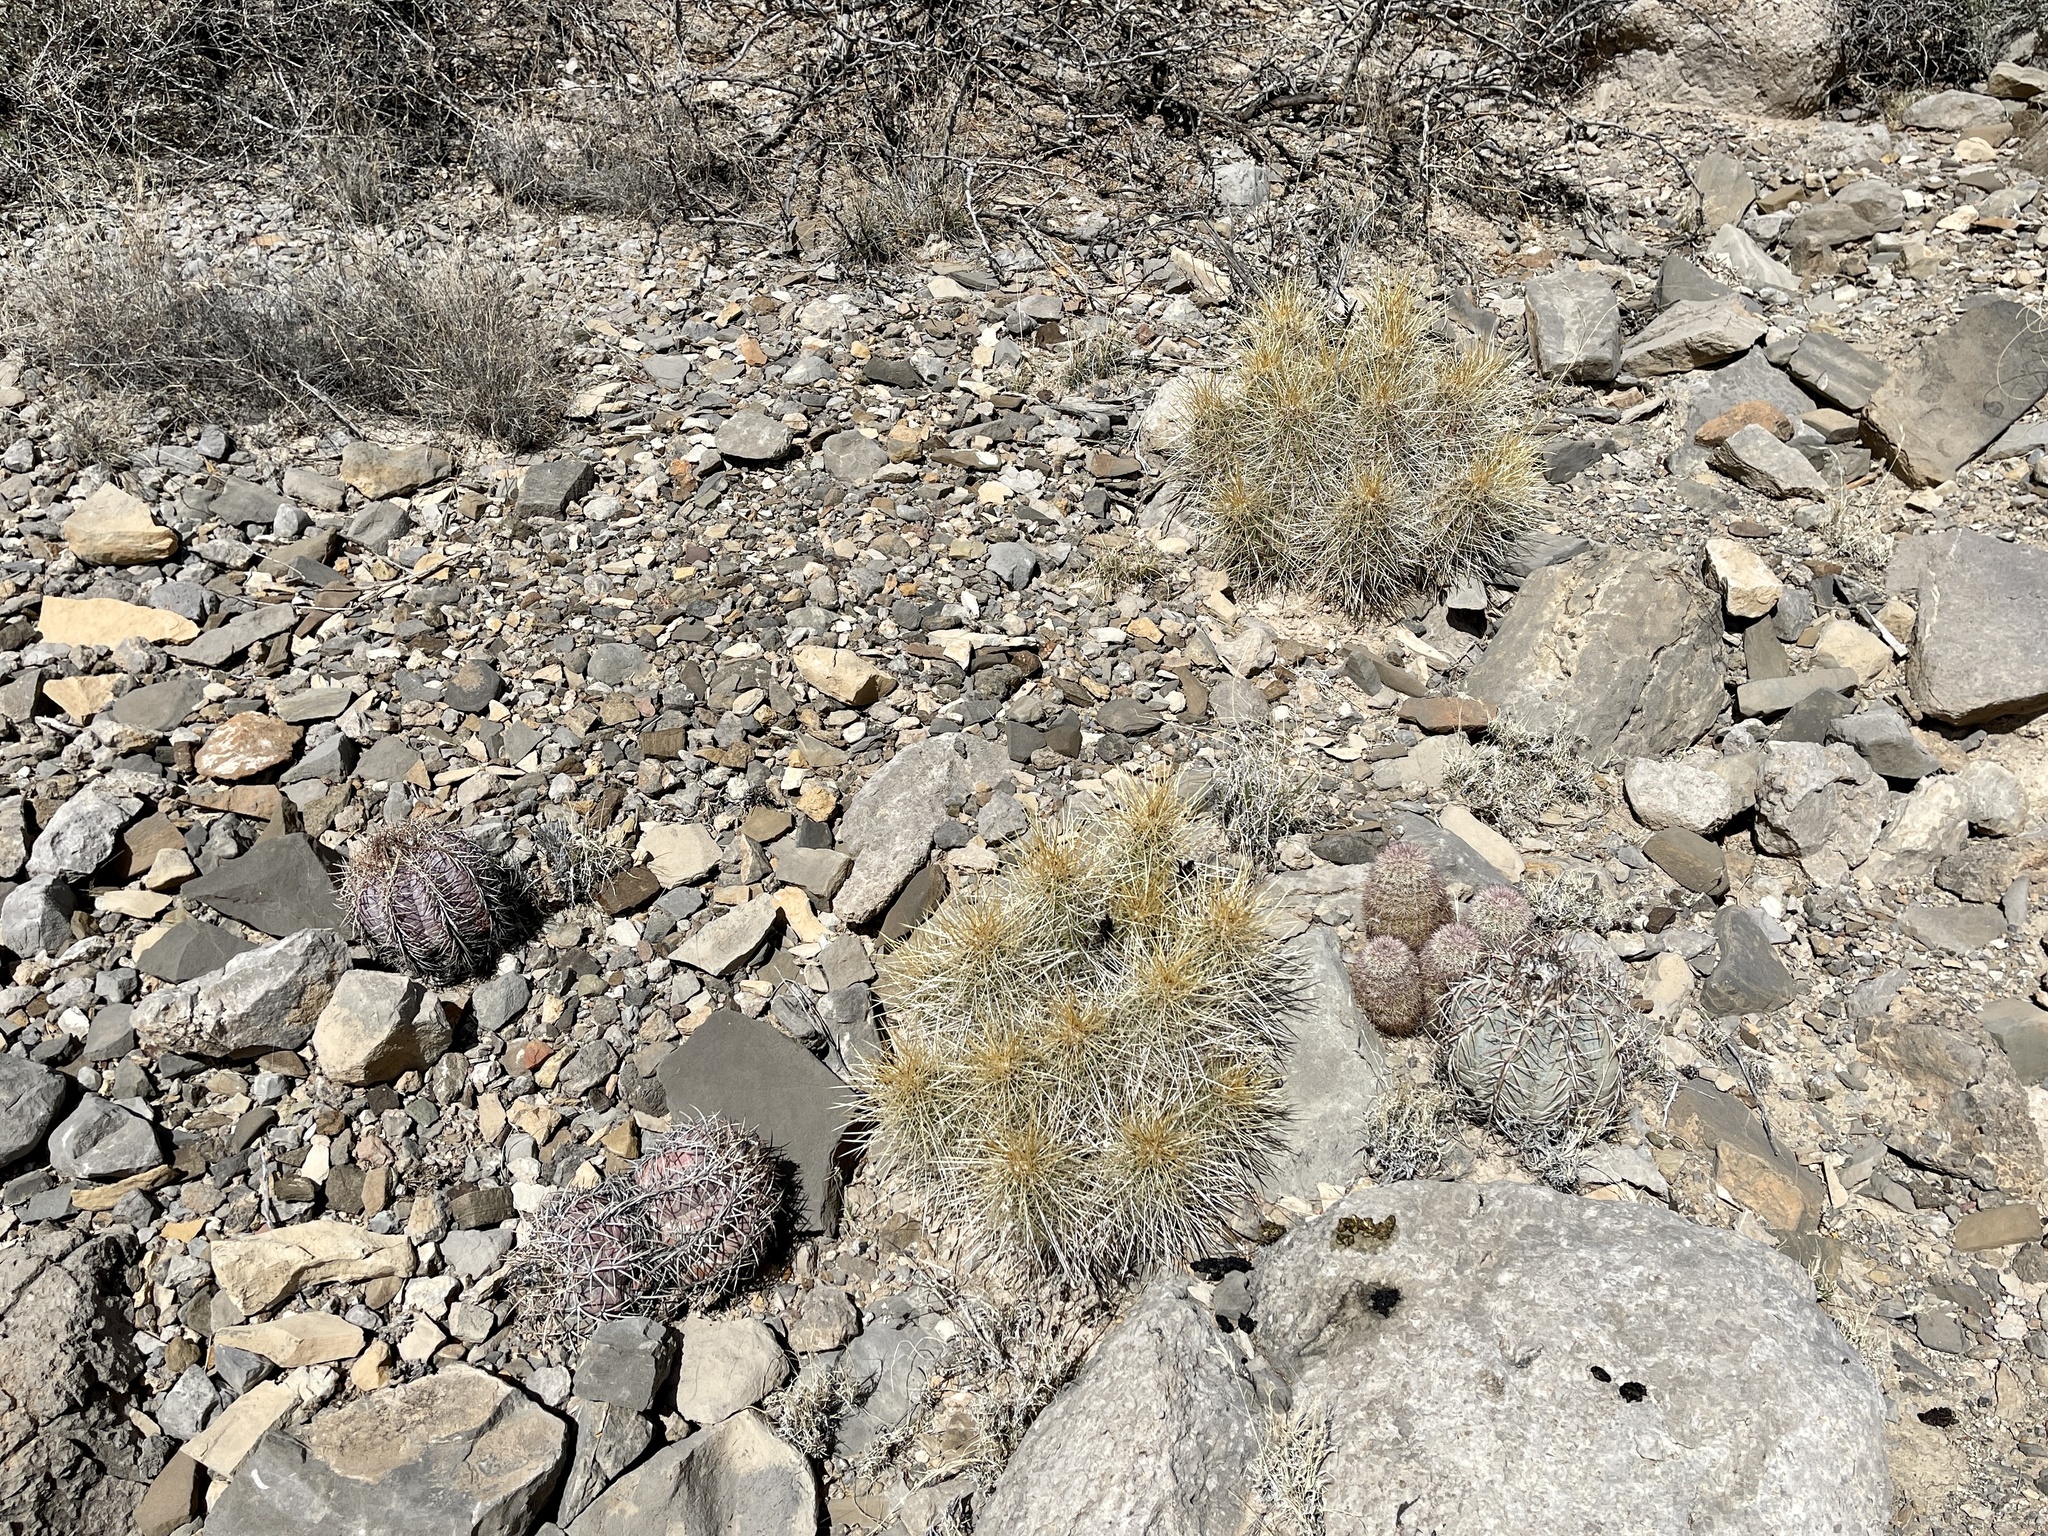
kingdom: Plantae
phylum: Tracheophyta
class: Magnoliopsida
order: Caryophyllales
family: Cactaceae
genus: Echinocereus
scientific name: Echinocereus stramineus
